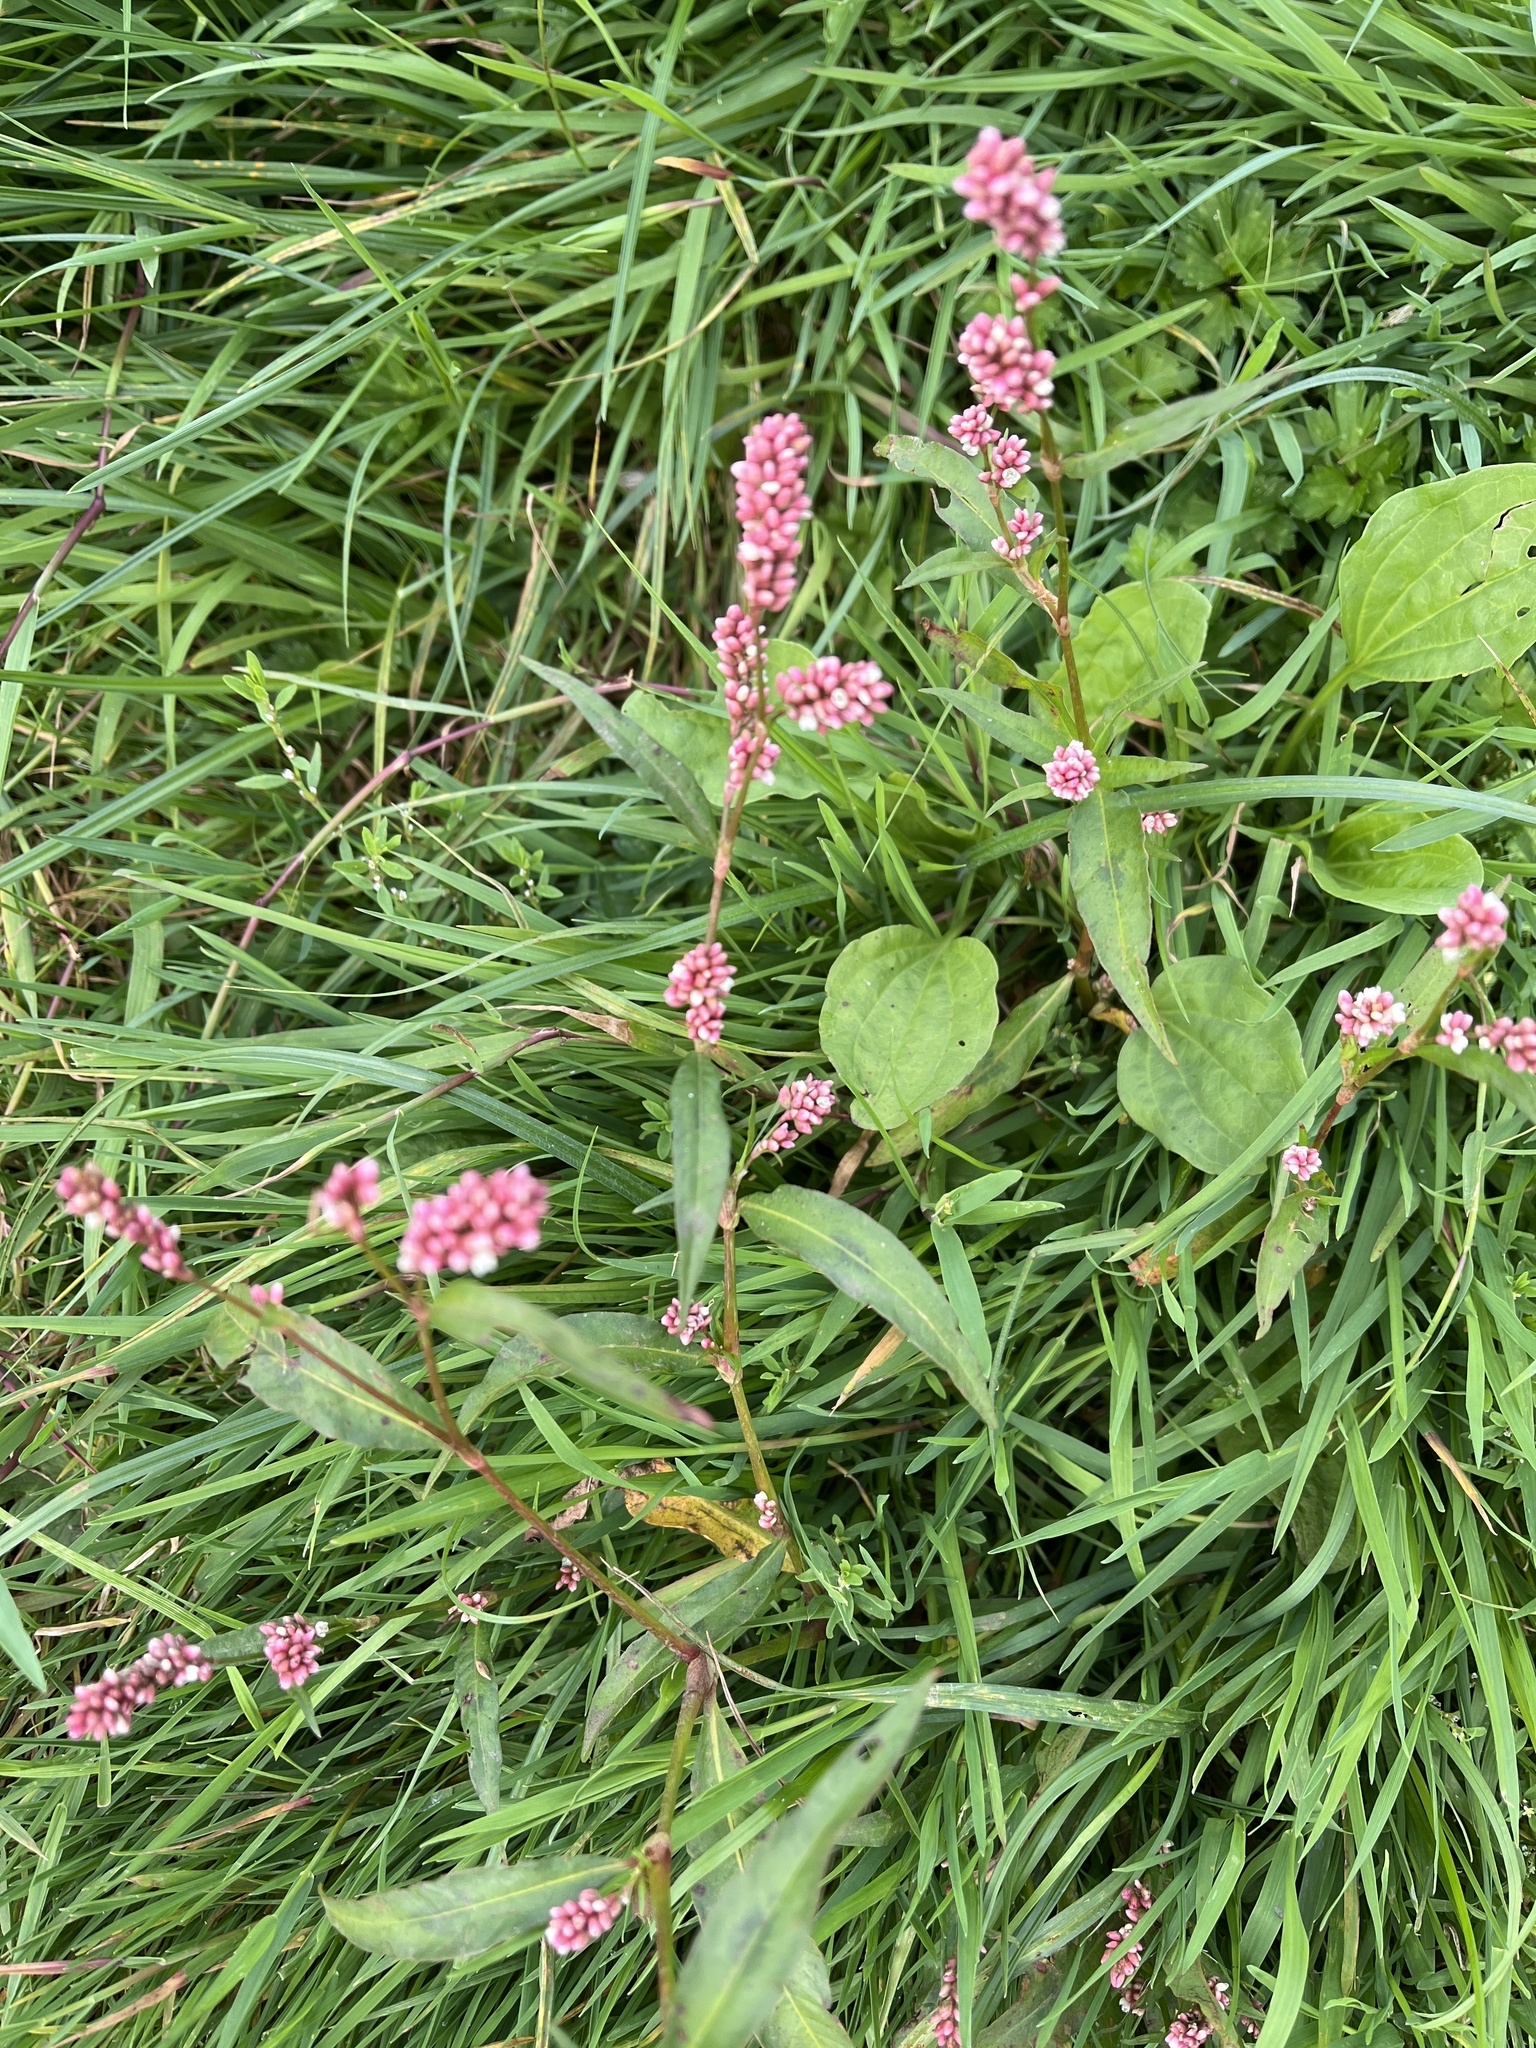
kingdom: Plantae
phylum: Tracheophyta
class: Magnoliopsida
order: Caryophyllales
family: Polygonaceae
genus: Persicaria
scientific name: Persicaria maculosa
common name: Redshank
